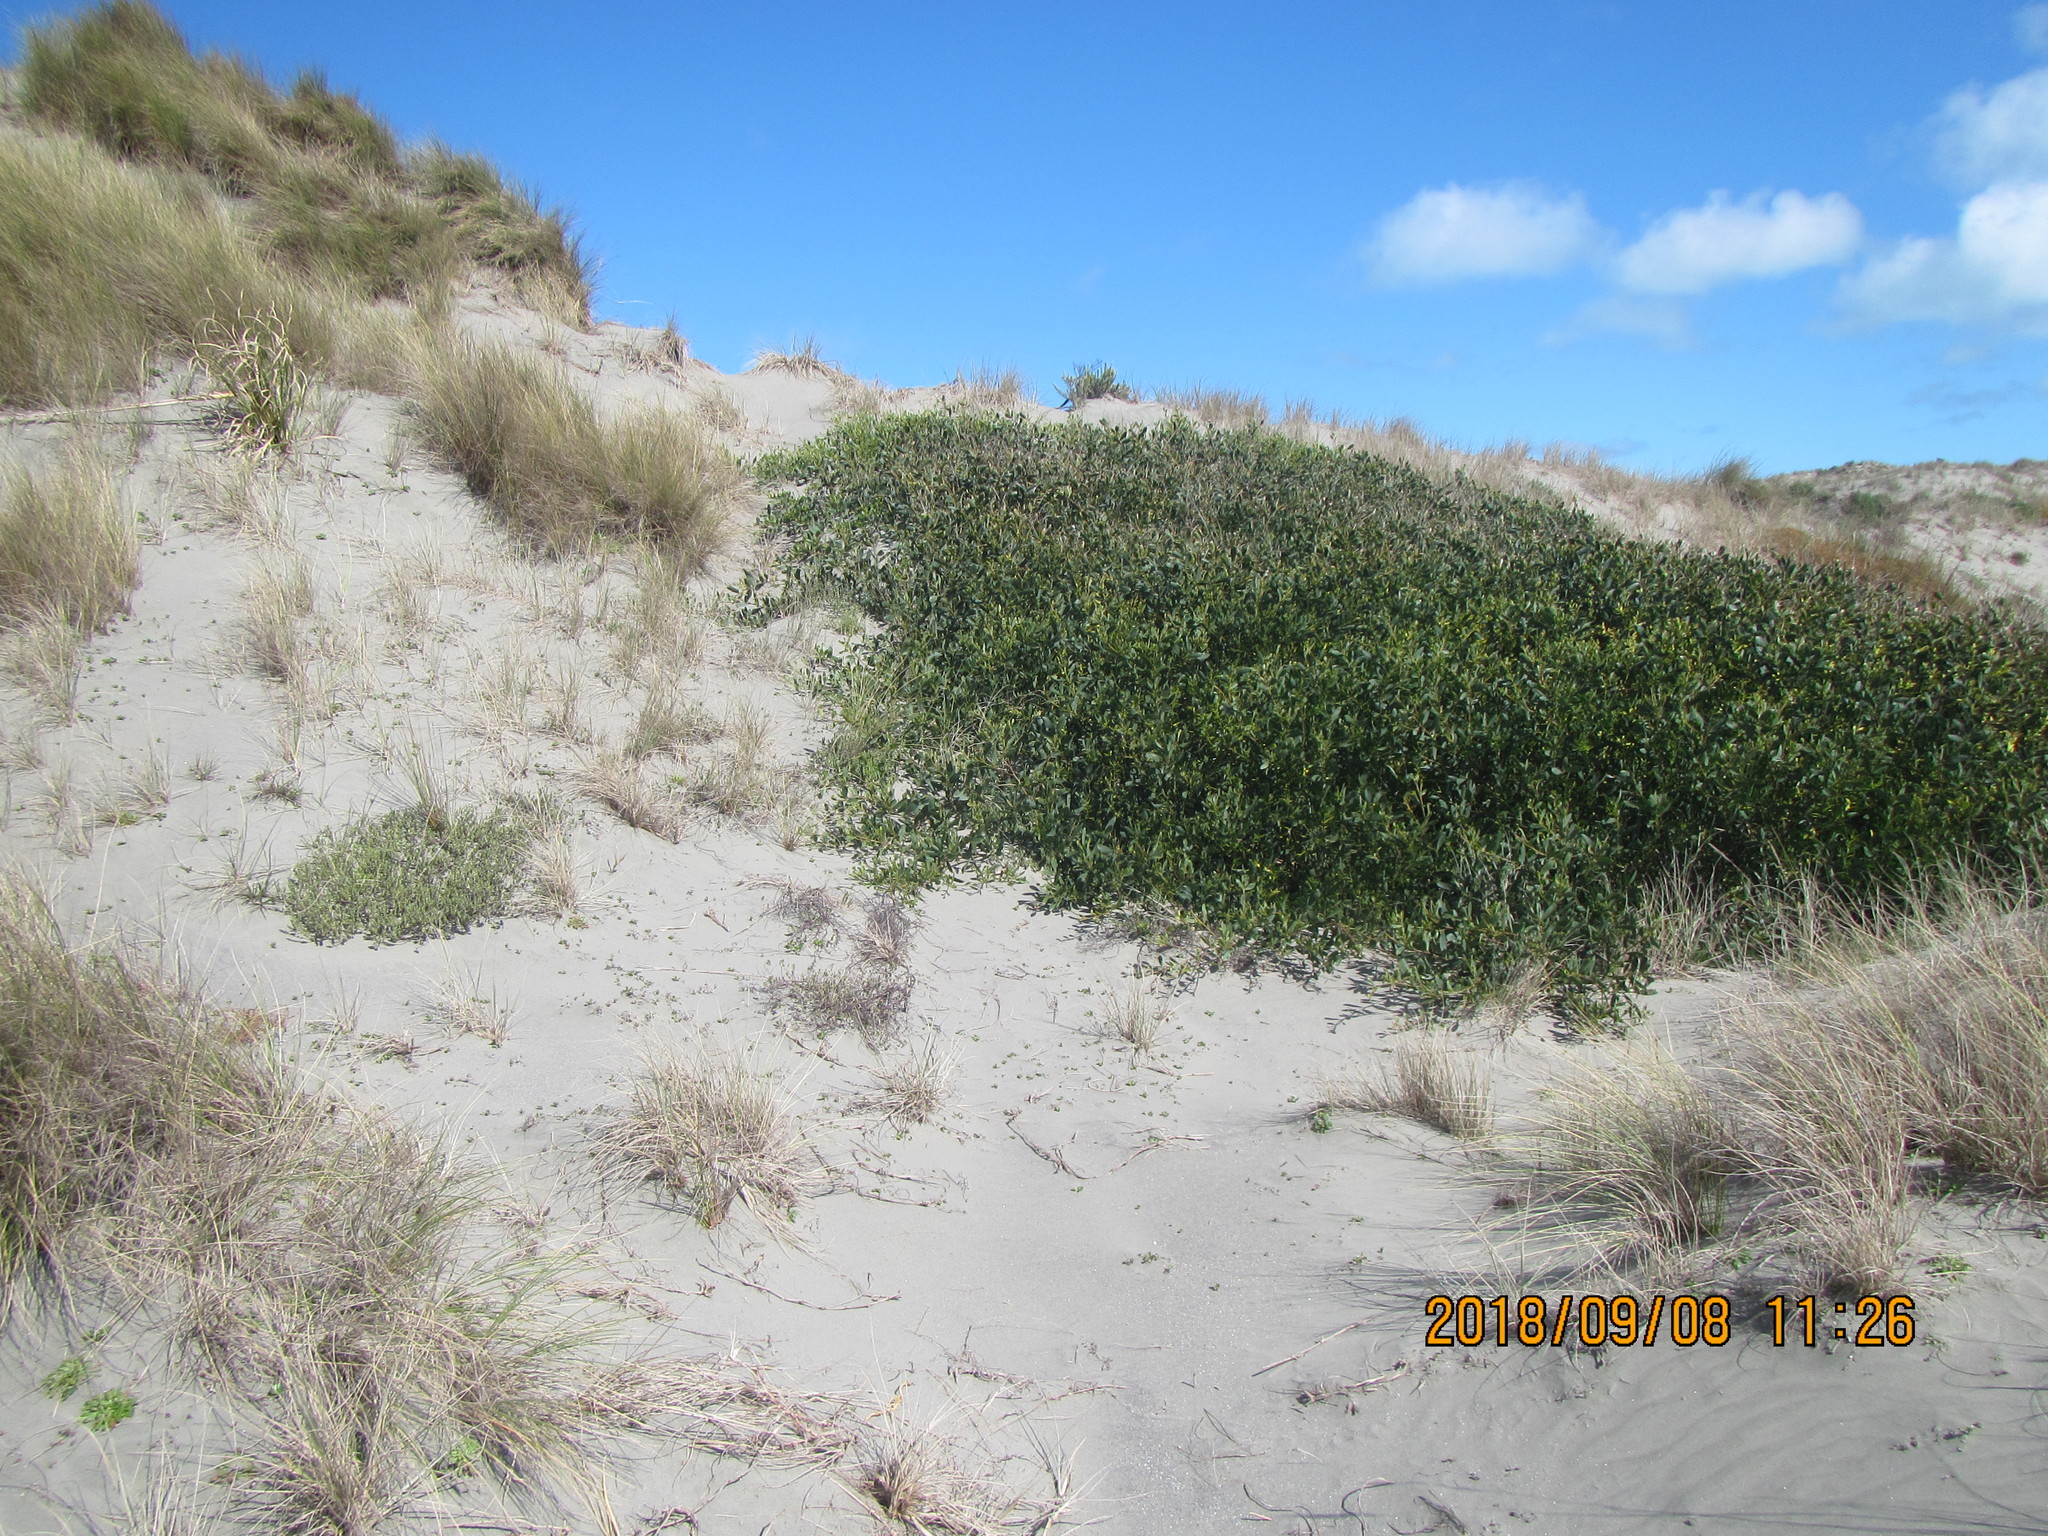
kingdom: Plantae
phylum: Tracheophyta
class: Magnoliopsida
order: Fabales
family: Fabaceae
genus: Acacia
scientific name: Acacia longifolia
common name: Sydney golden wattle
